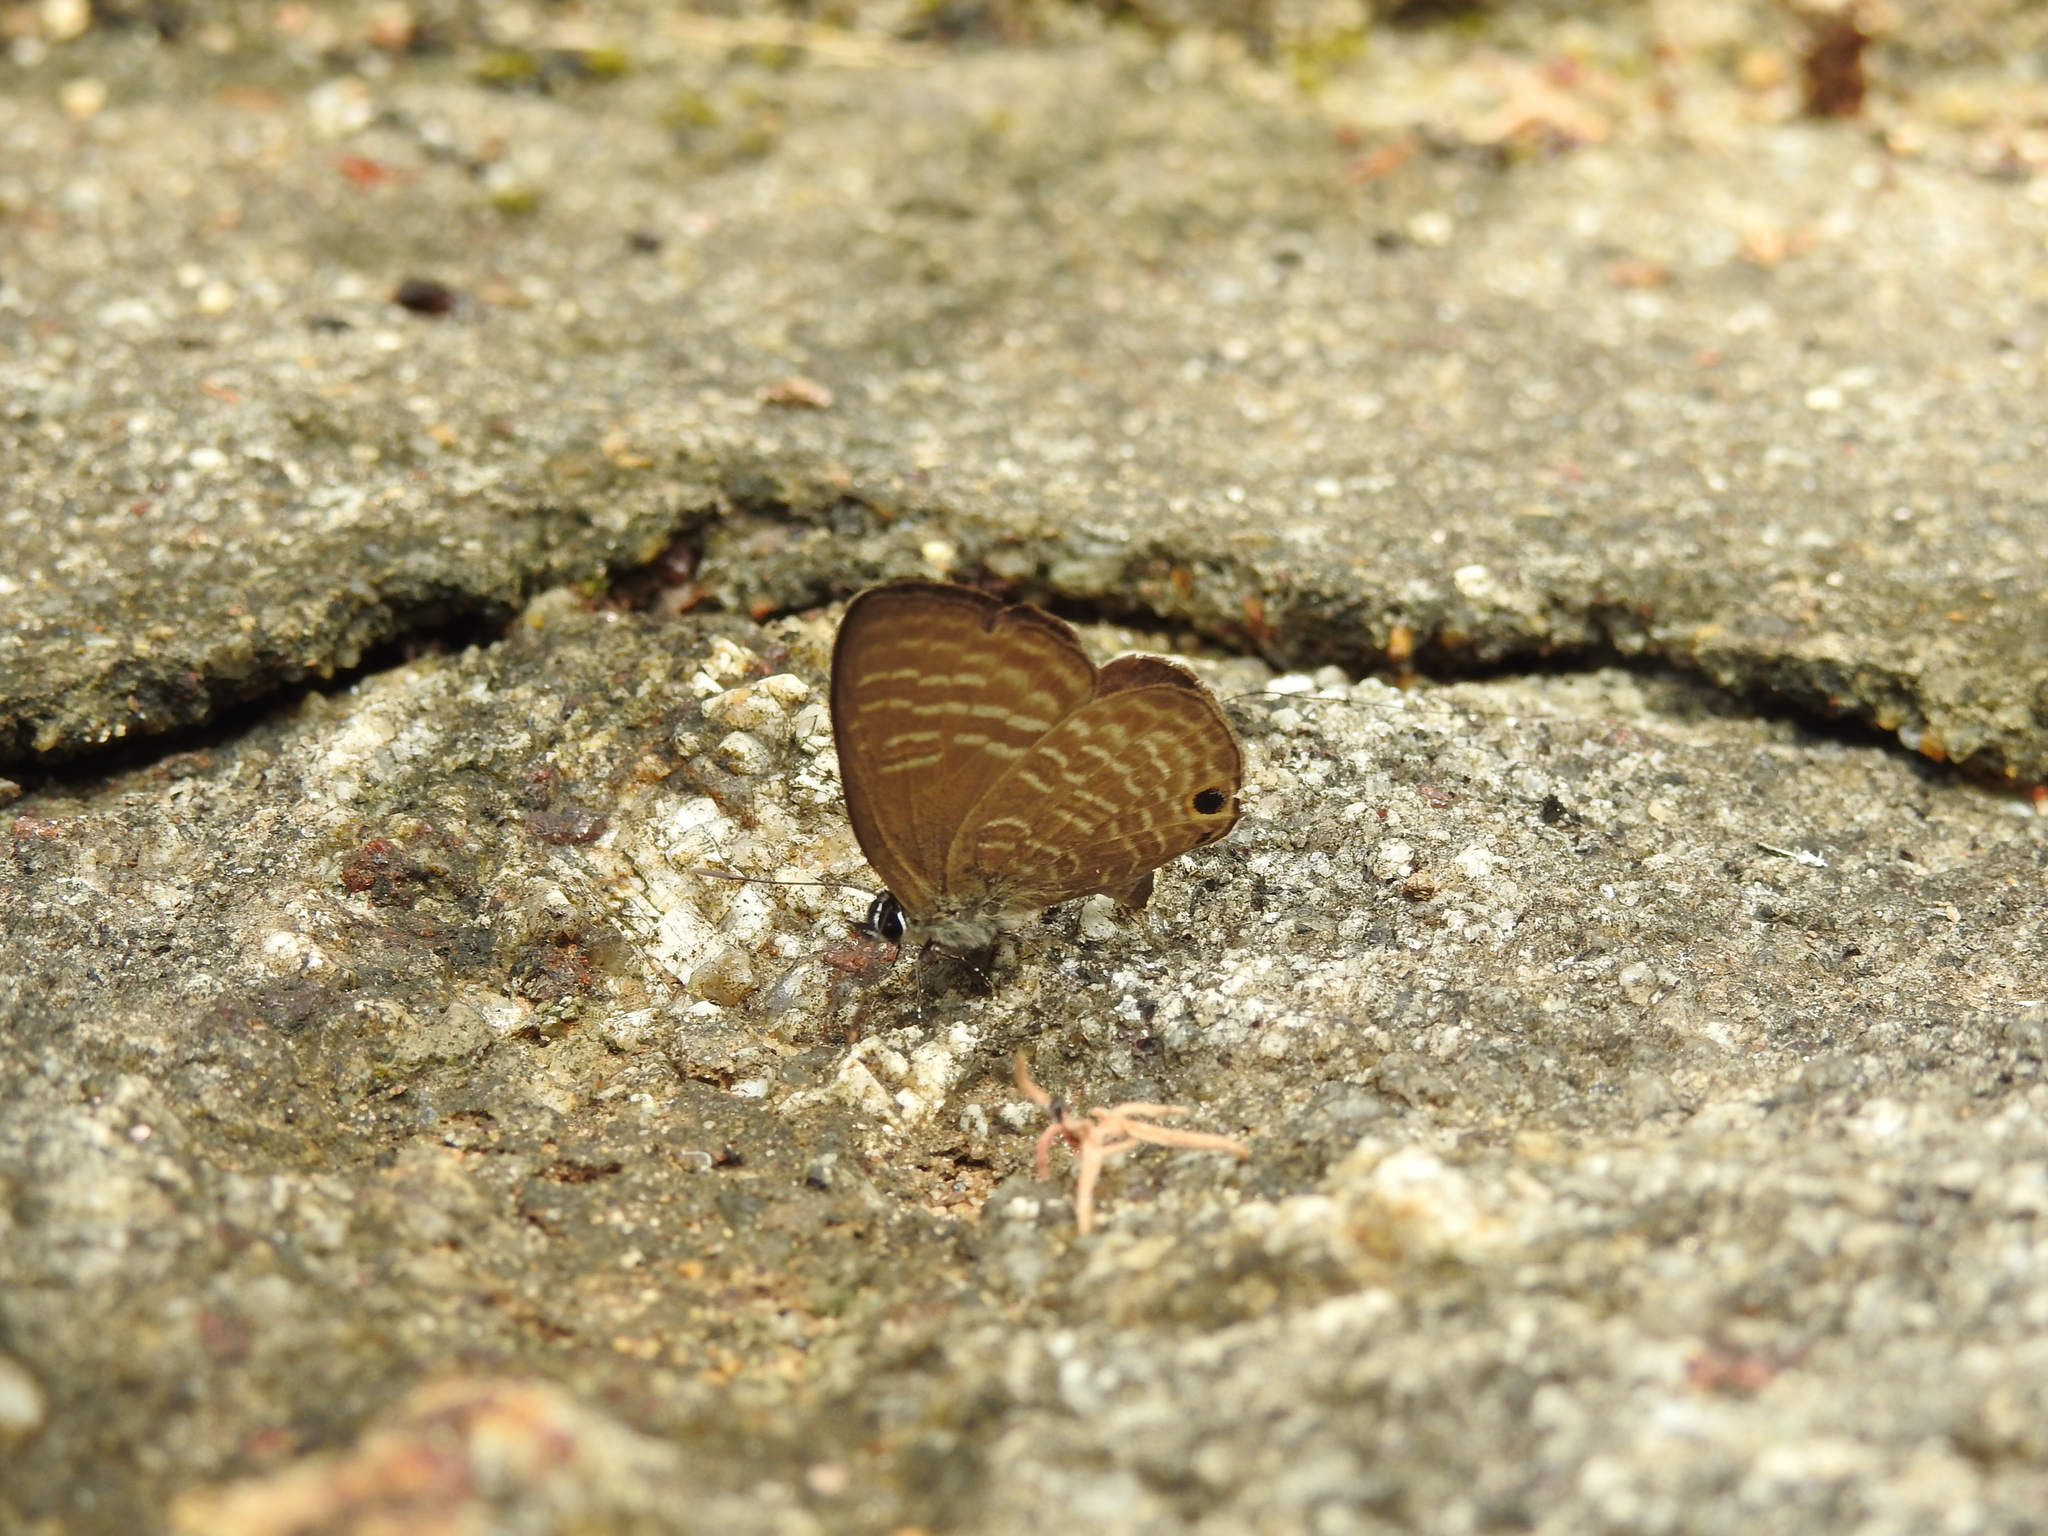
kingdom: Animalia
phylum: Arthropoda
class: Insecta
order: Lepidoptera
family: Lycaenidae
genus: Nacaduba
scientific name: Nacaduba pactolus
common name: Large fourline blue
